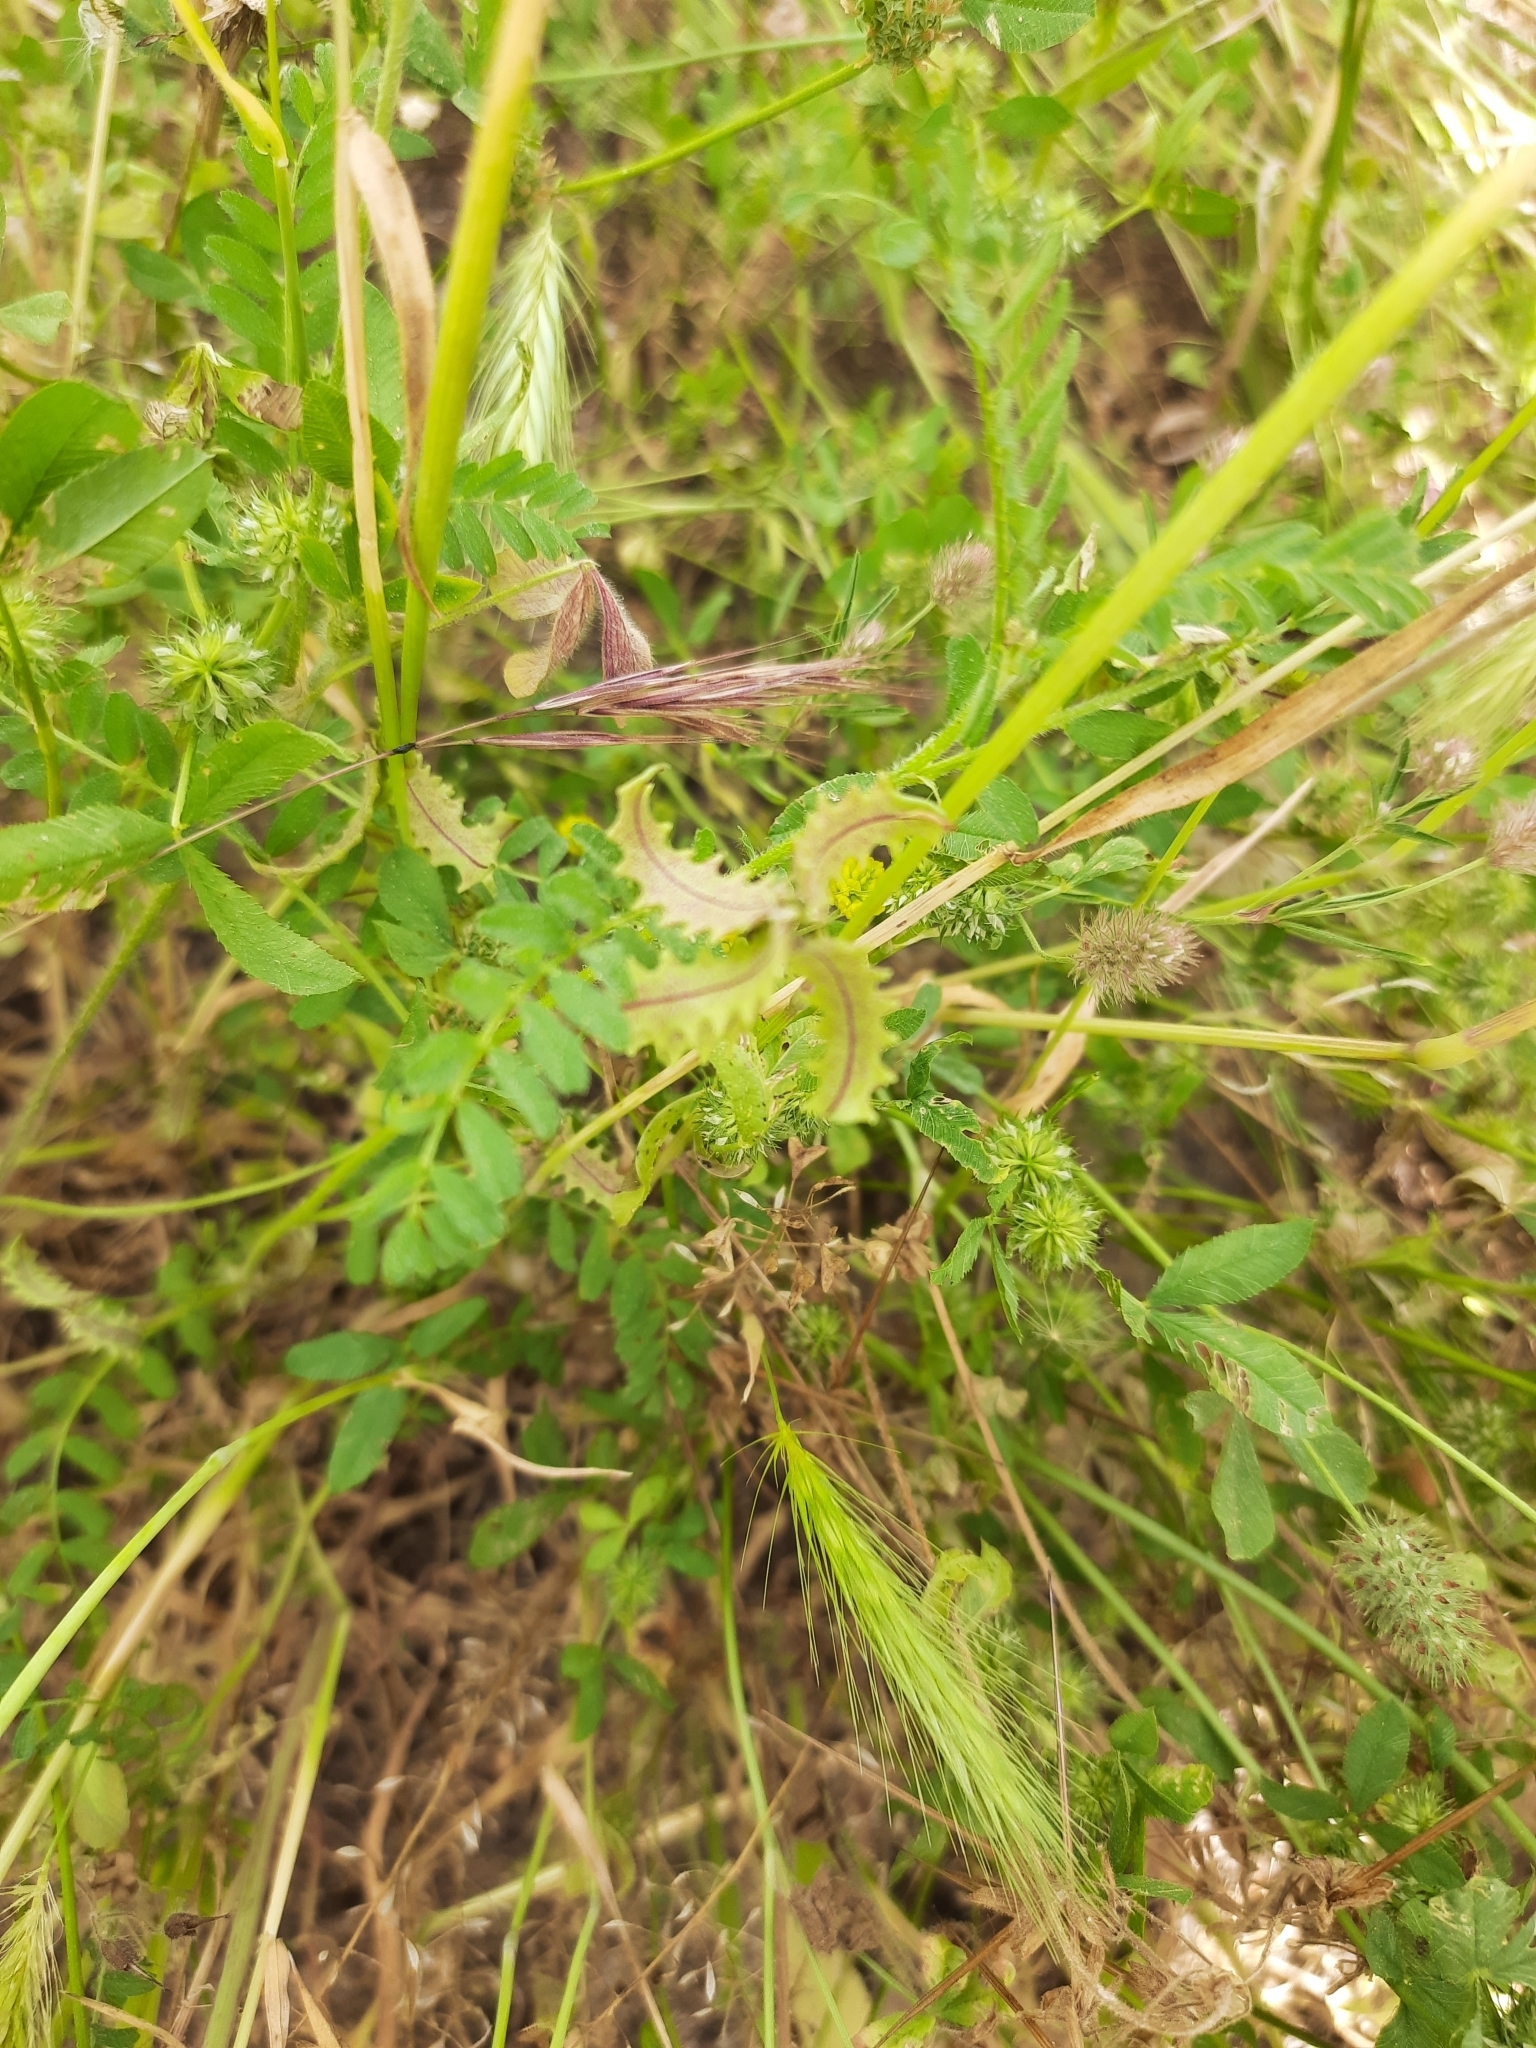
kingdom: Plantae
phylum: Tracheophyta
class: Magnoliopsida
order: Fabales
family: Fabaceae
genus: Biserrula
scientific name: Biserrula pelecinus
